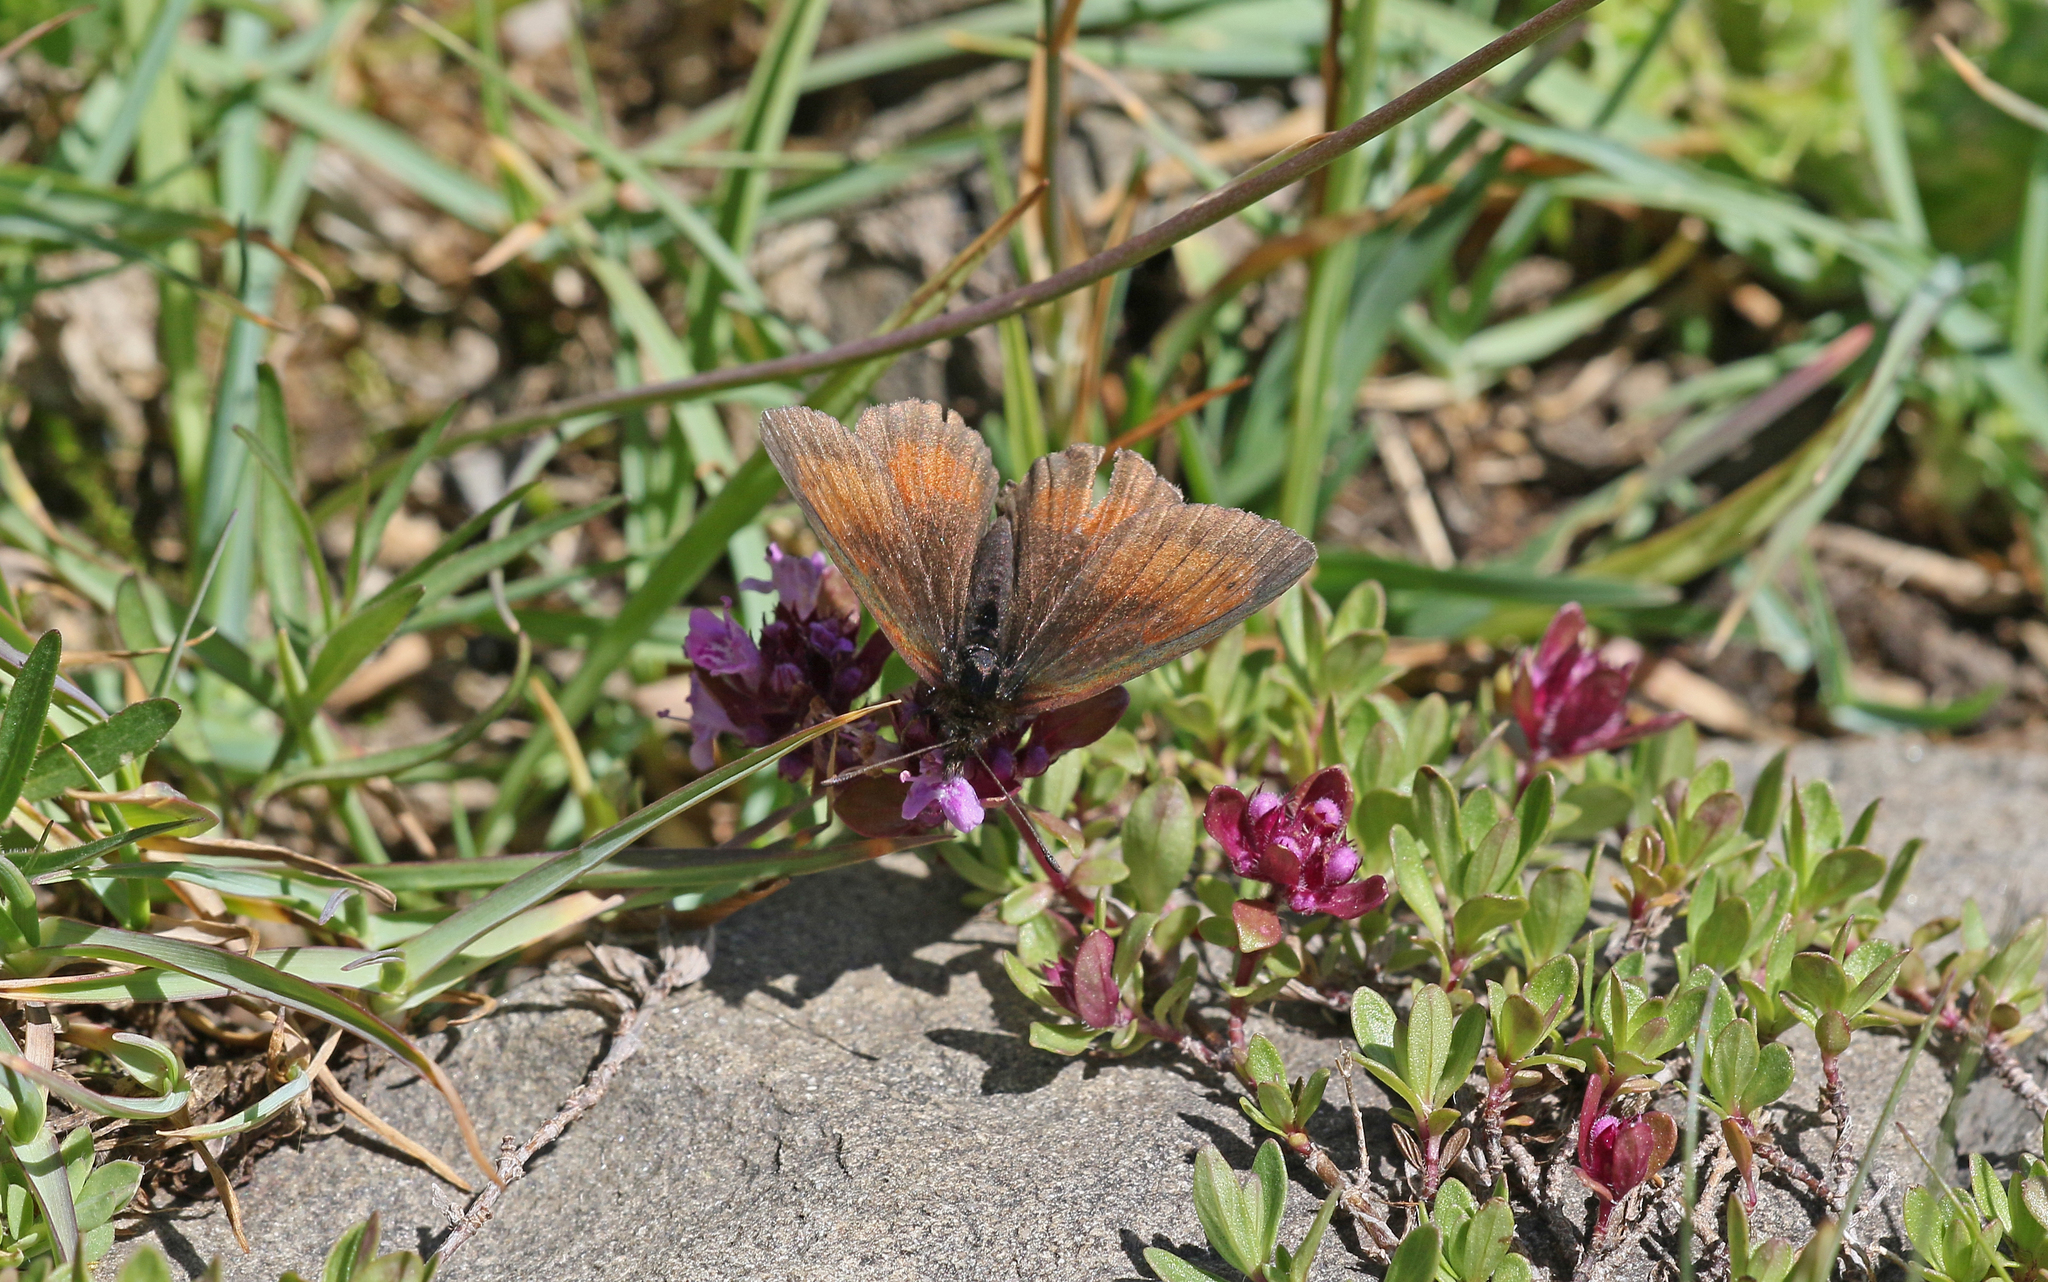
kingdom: Animalia
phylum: Arthropoda
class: Insecta
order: Lepidoptera
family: Nymphalidae
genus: Erebia
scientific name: Erebia mnestra
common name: Mnestra’s ringlet
